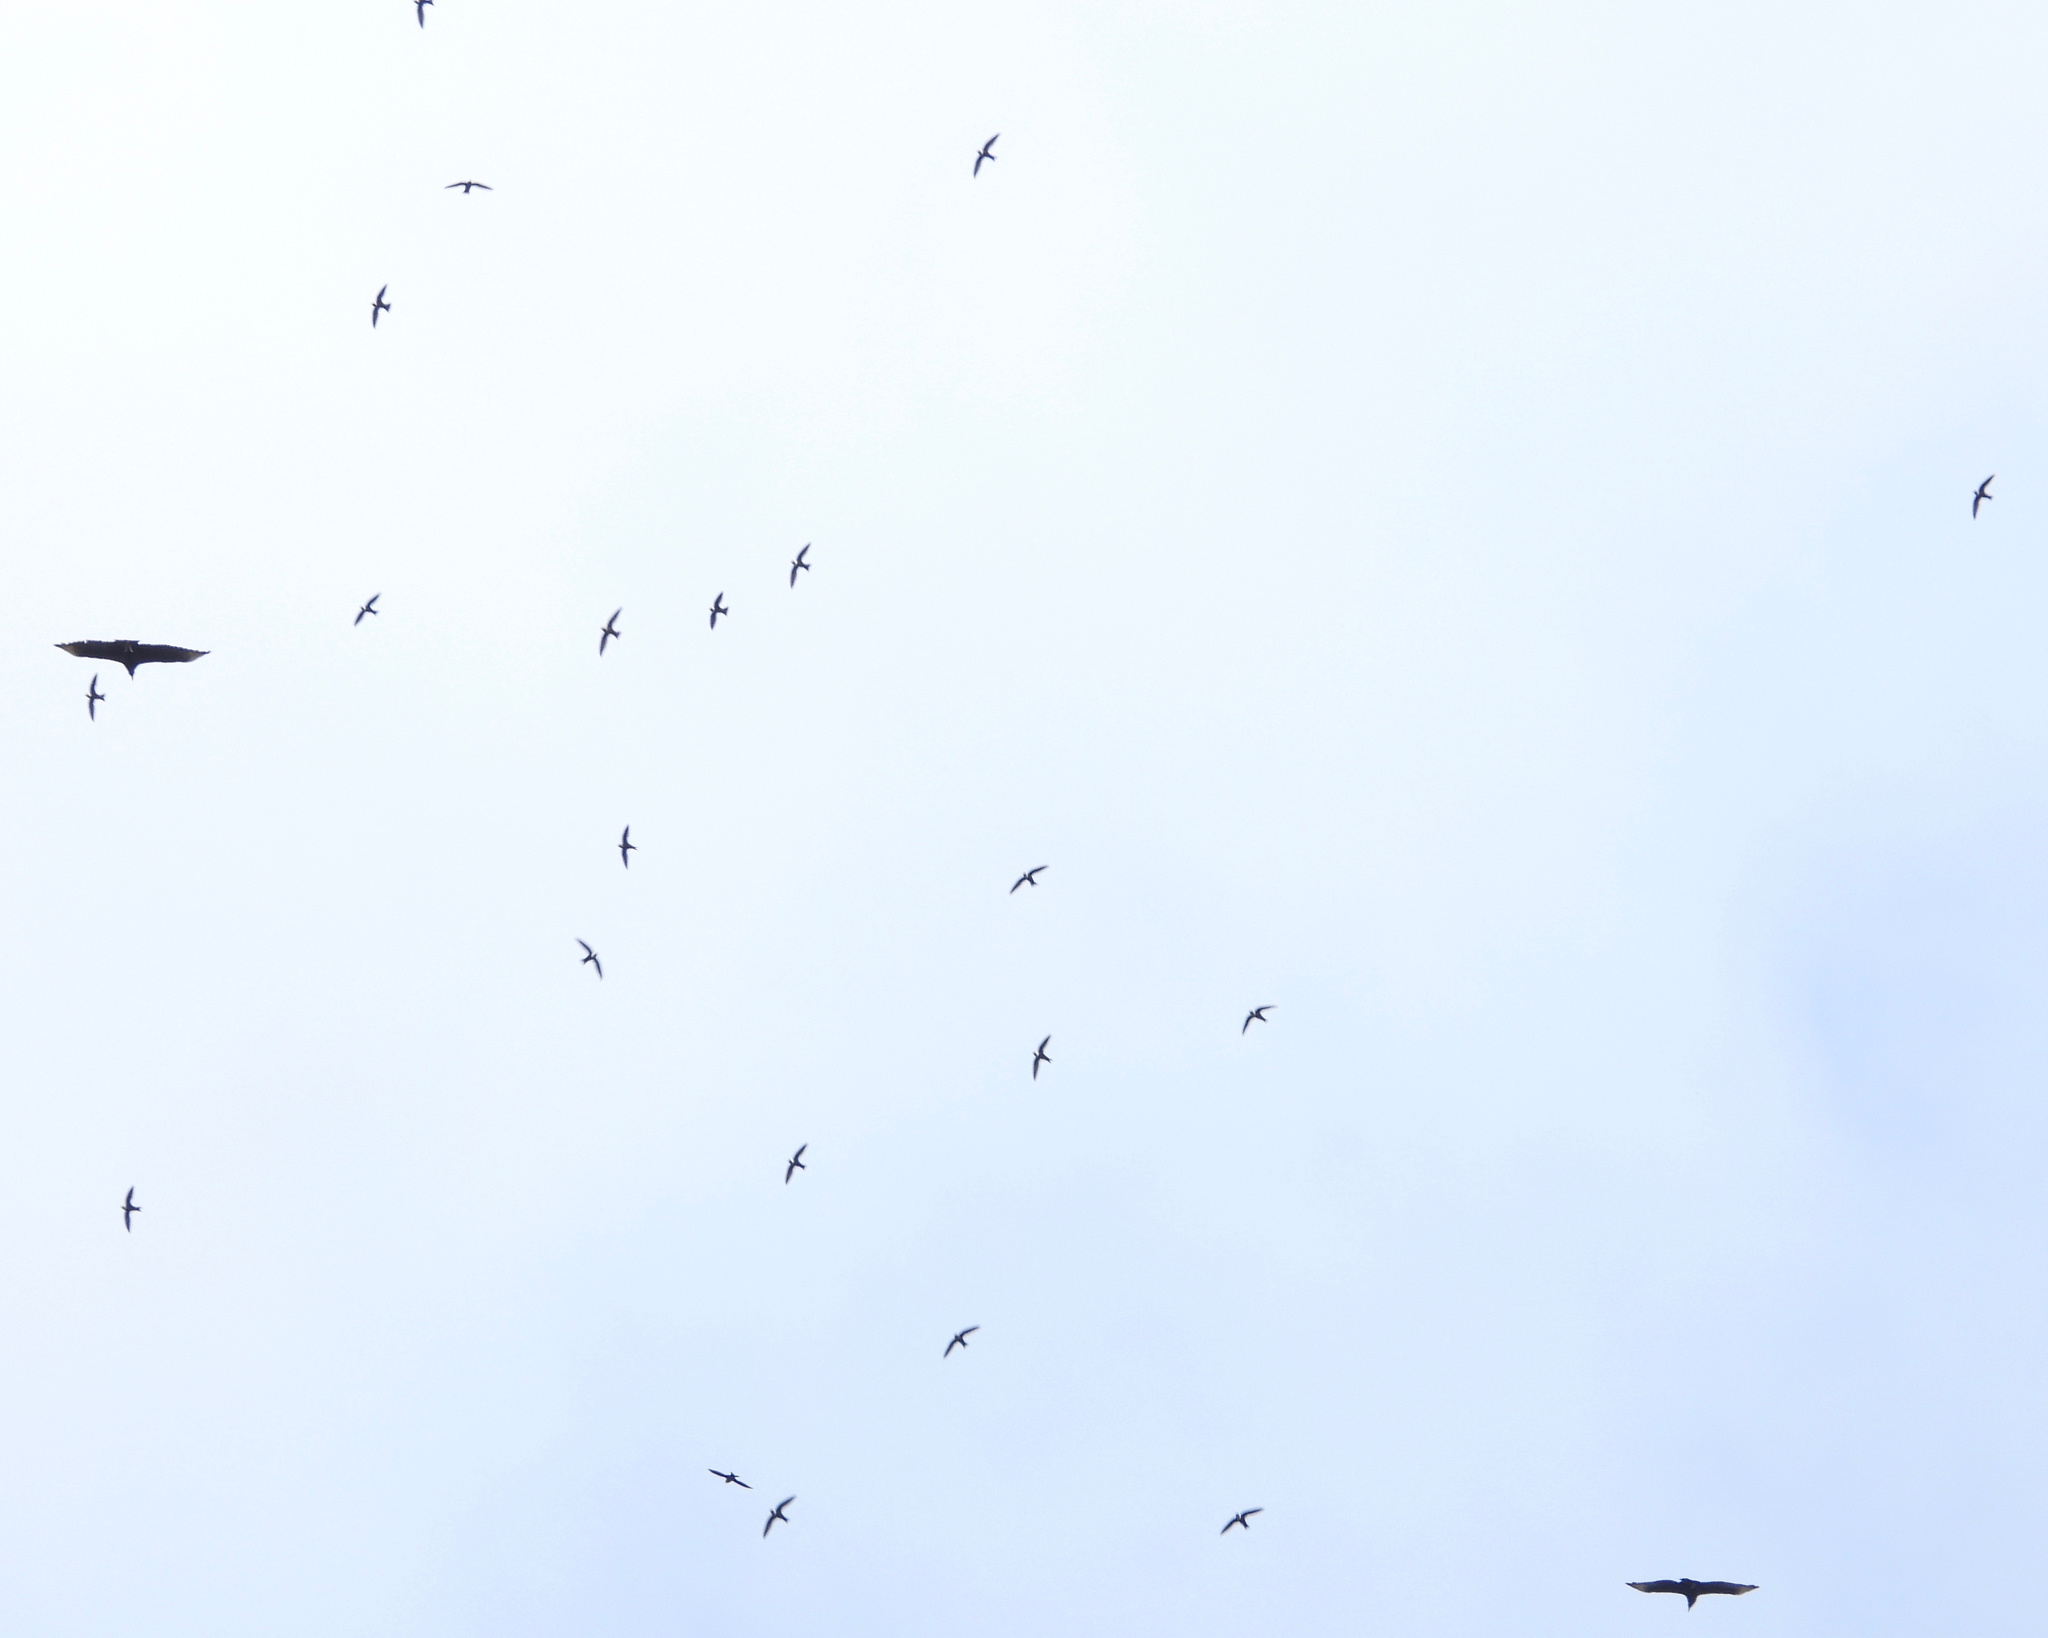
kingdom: Animalia
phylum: Chordata
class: Aves
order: Apodiformes
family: Apodidae
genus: Streptoprocne
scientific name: Streptoprocne zonaris
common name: White-collared swift
